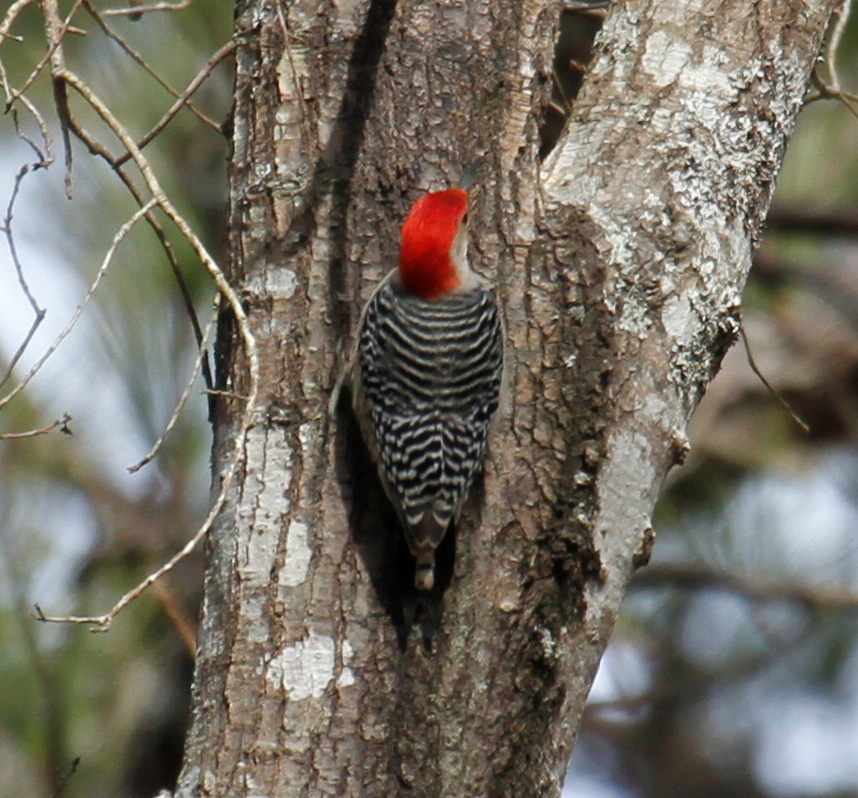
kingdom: Animalia
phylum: Chordata
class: Aves
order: Piciformes
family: Picidae
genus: Melanerpes
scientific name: Melanerpes carolinus
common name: Red-bellied woodpecker
